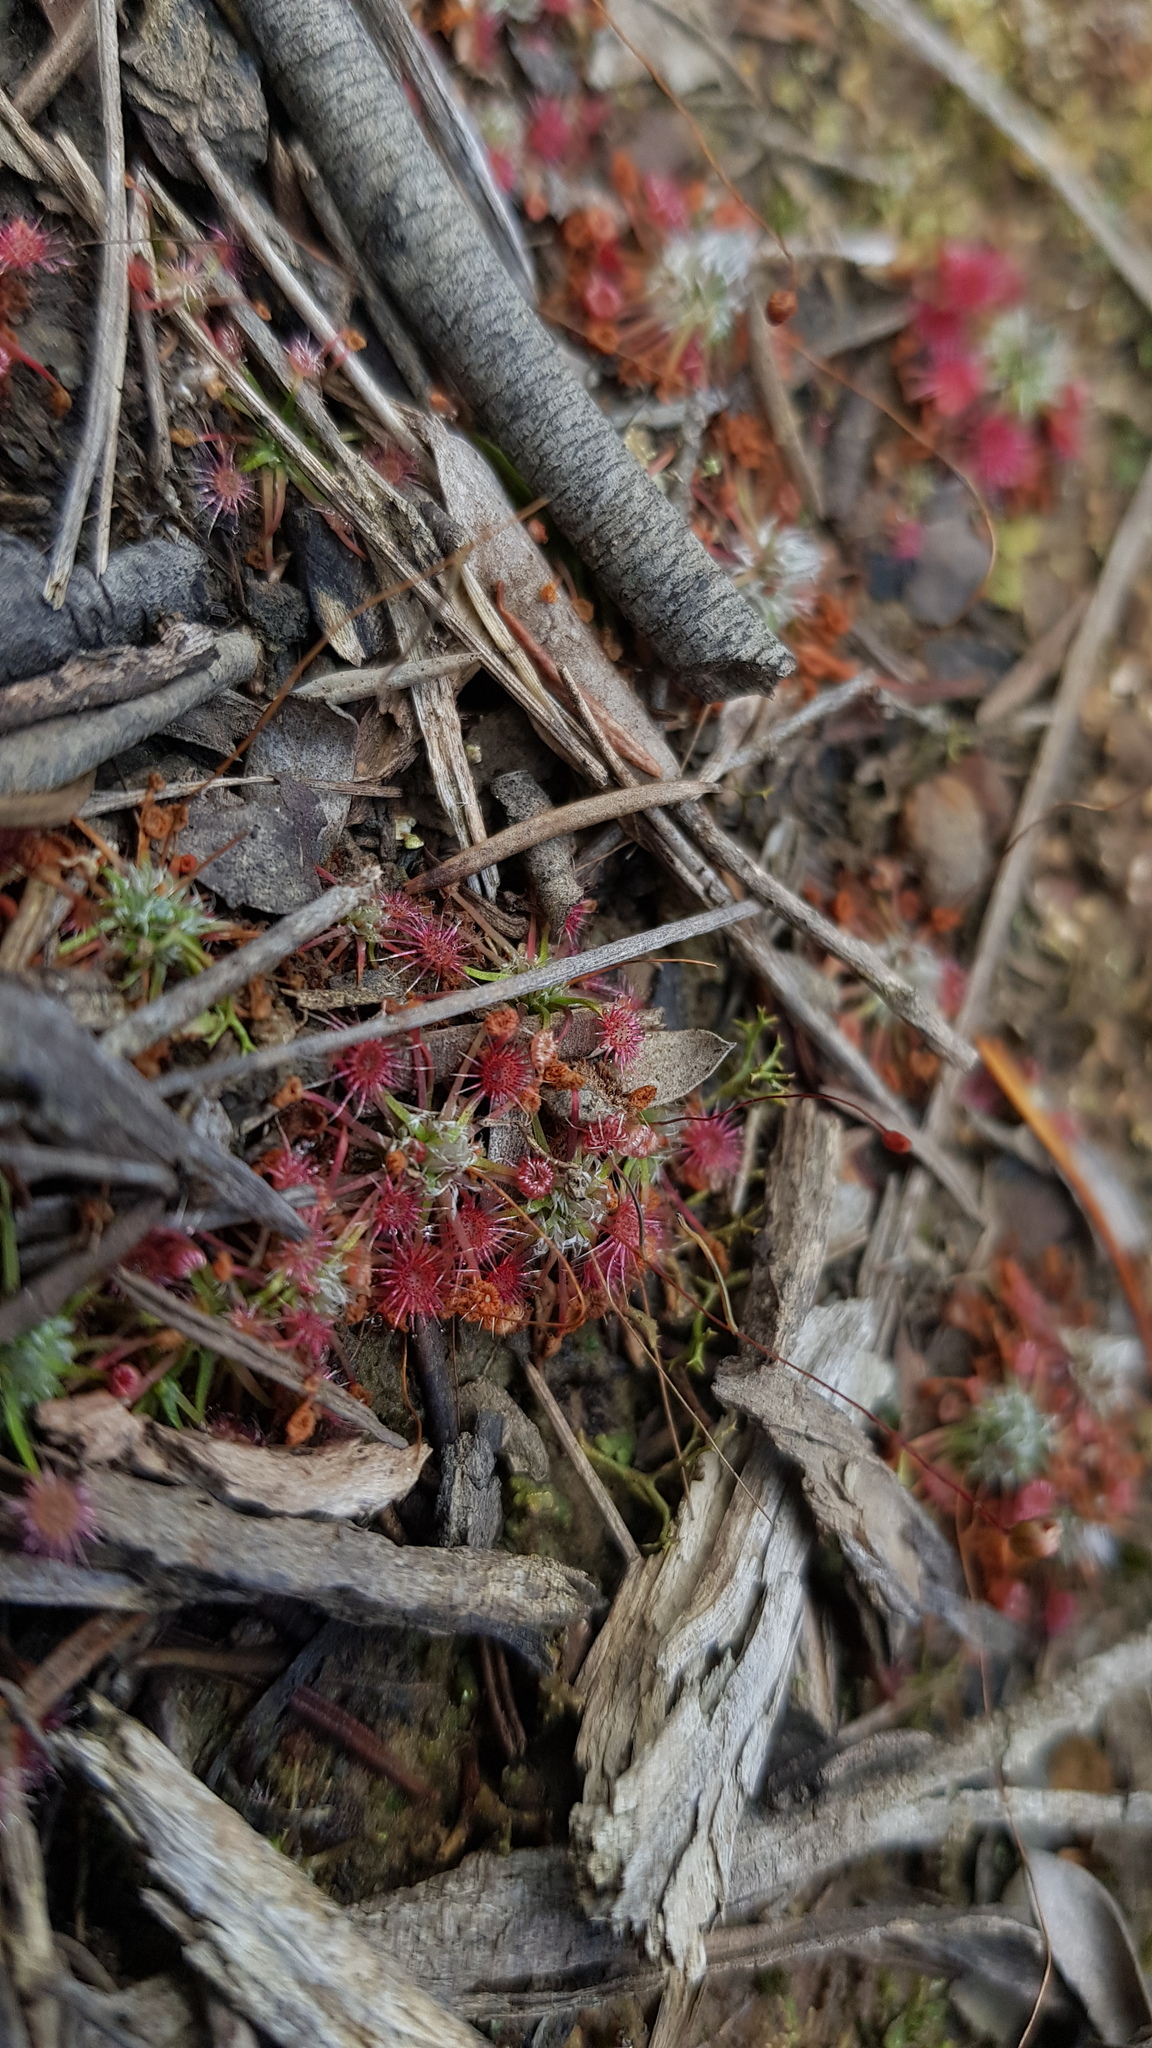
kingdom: Plantae
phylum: Tracheophyta
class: Magnoliopsida
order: Caryophyllales
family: Droseraceae
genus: Drosera
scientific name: Drosera pygmaea
